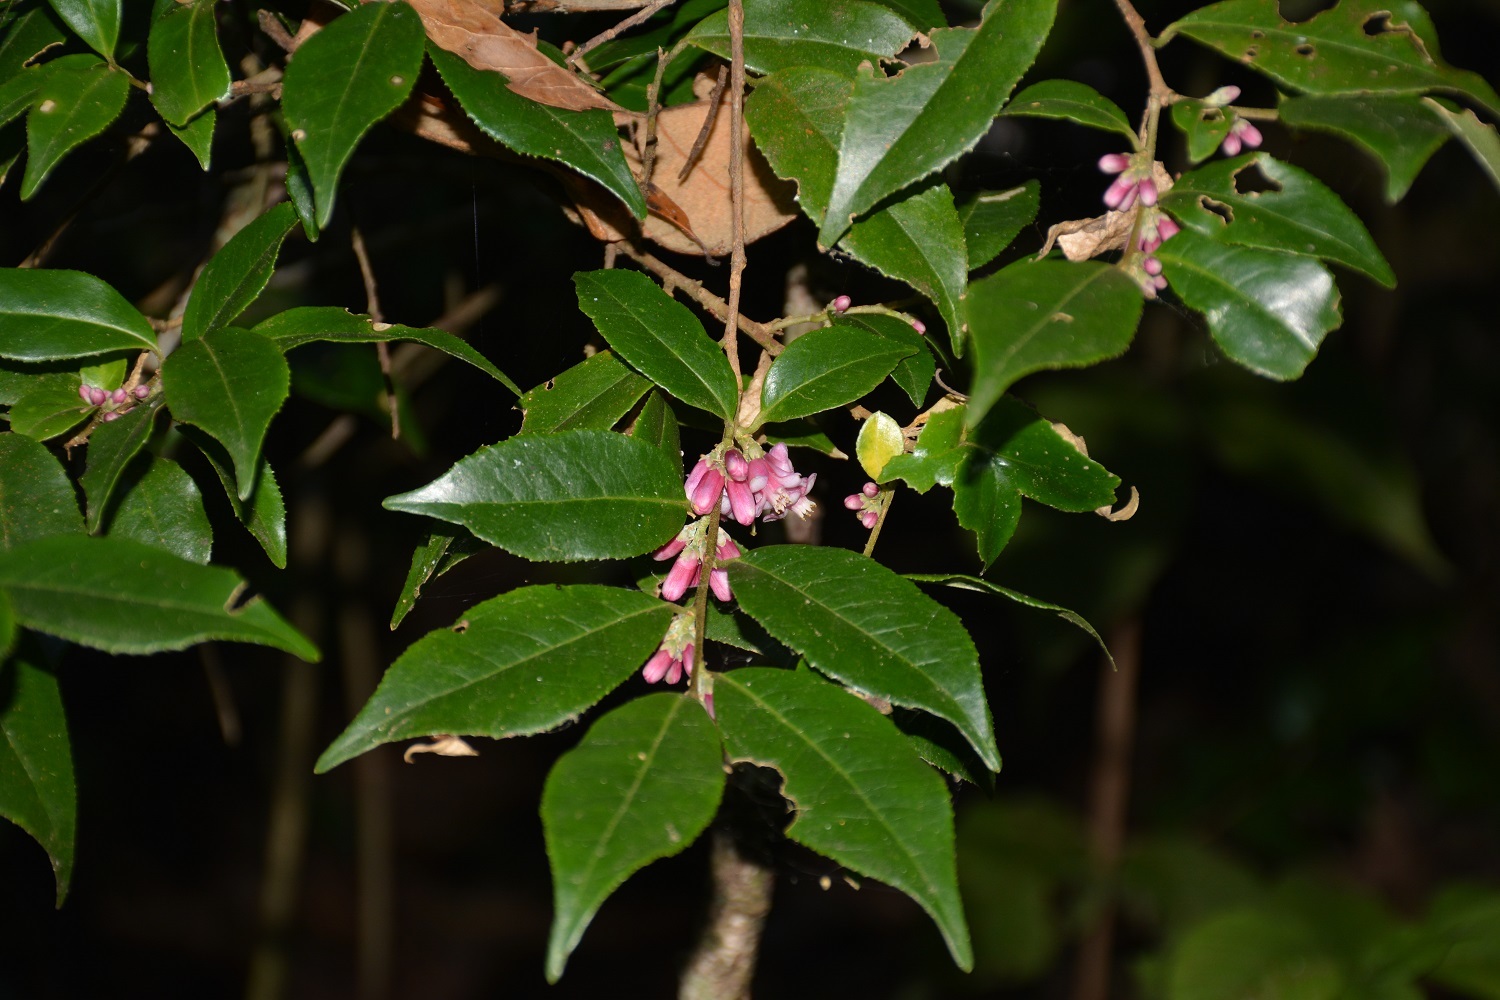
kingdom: Plantae
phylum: Tracheophyta
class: Magnoliopsida
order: Ericales
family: Symplocaceae
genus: Symplocos
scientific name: Symplocos breedlovei
